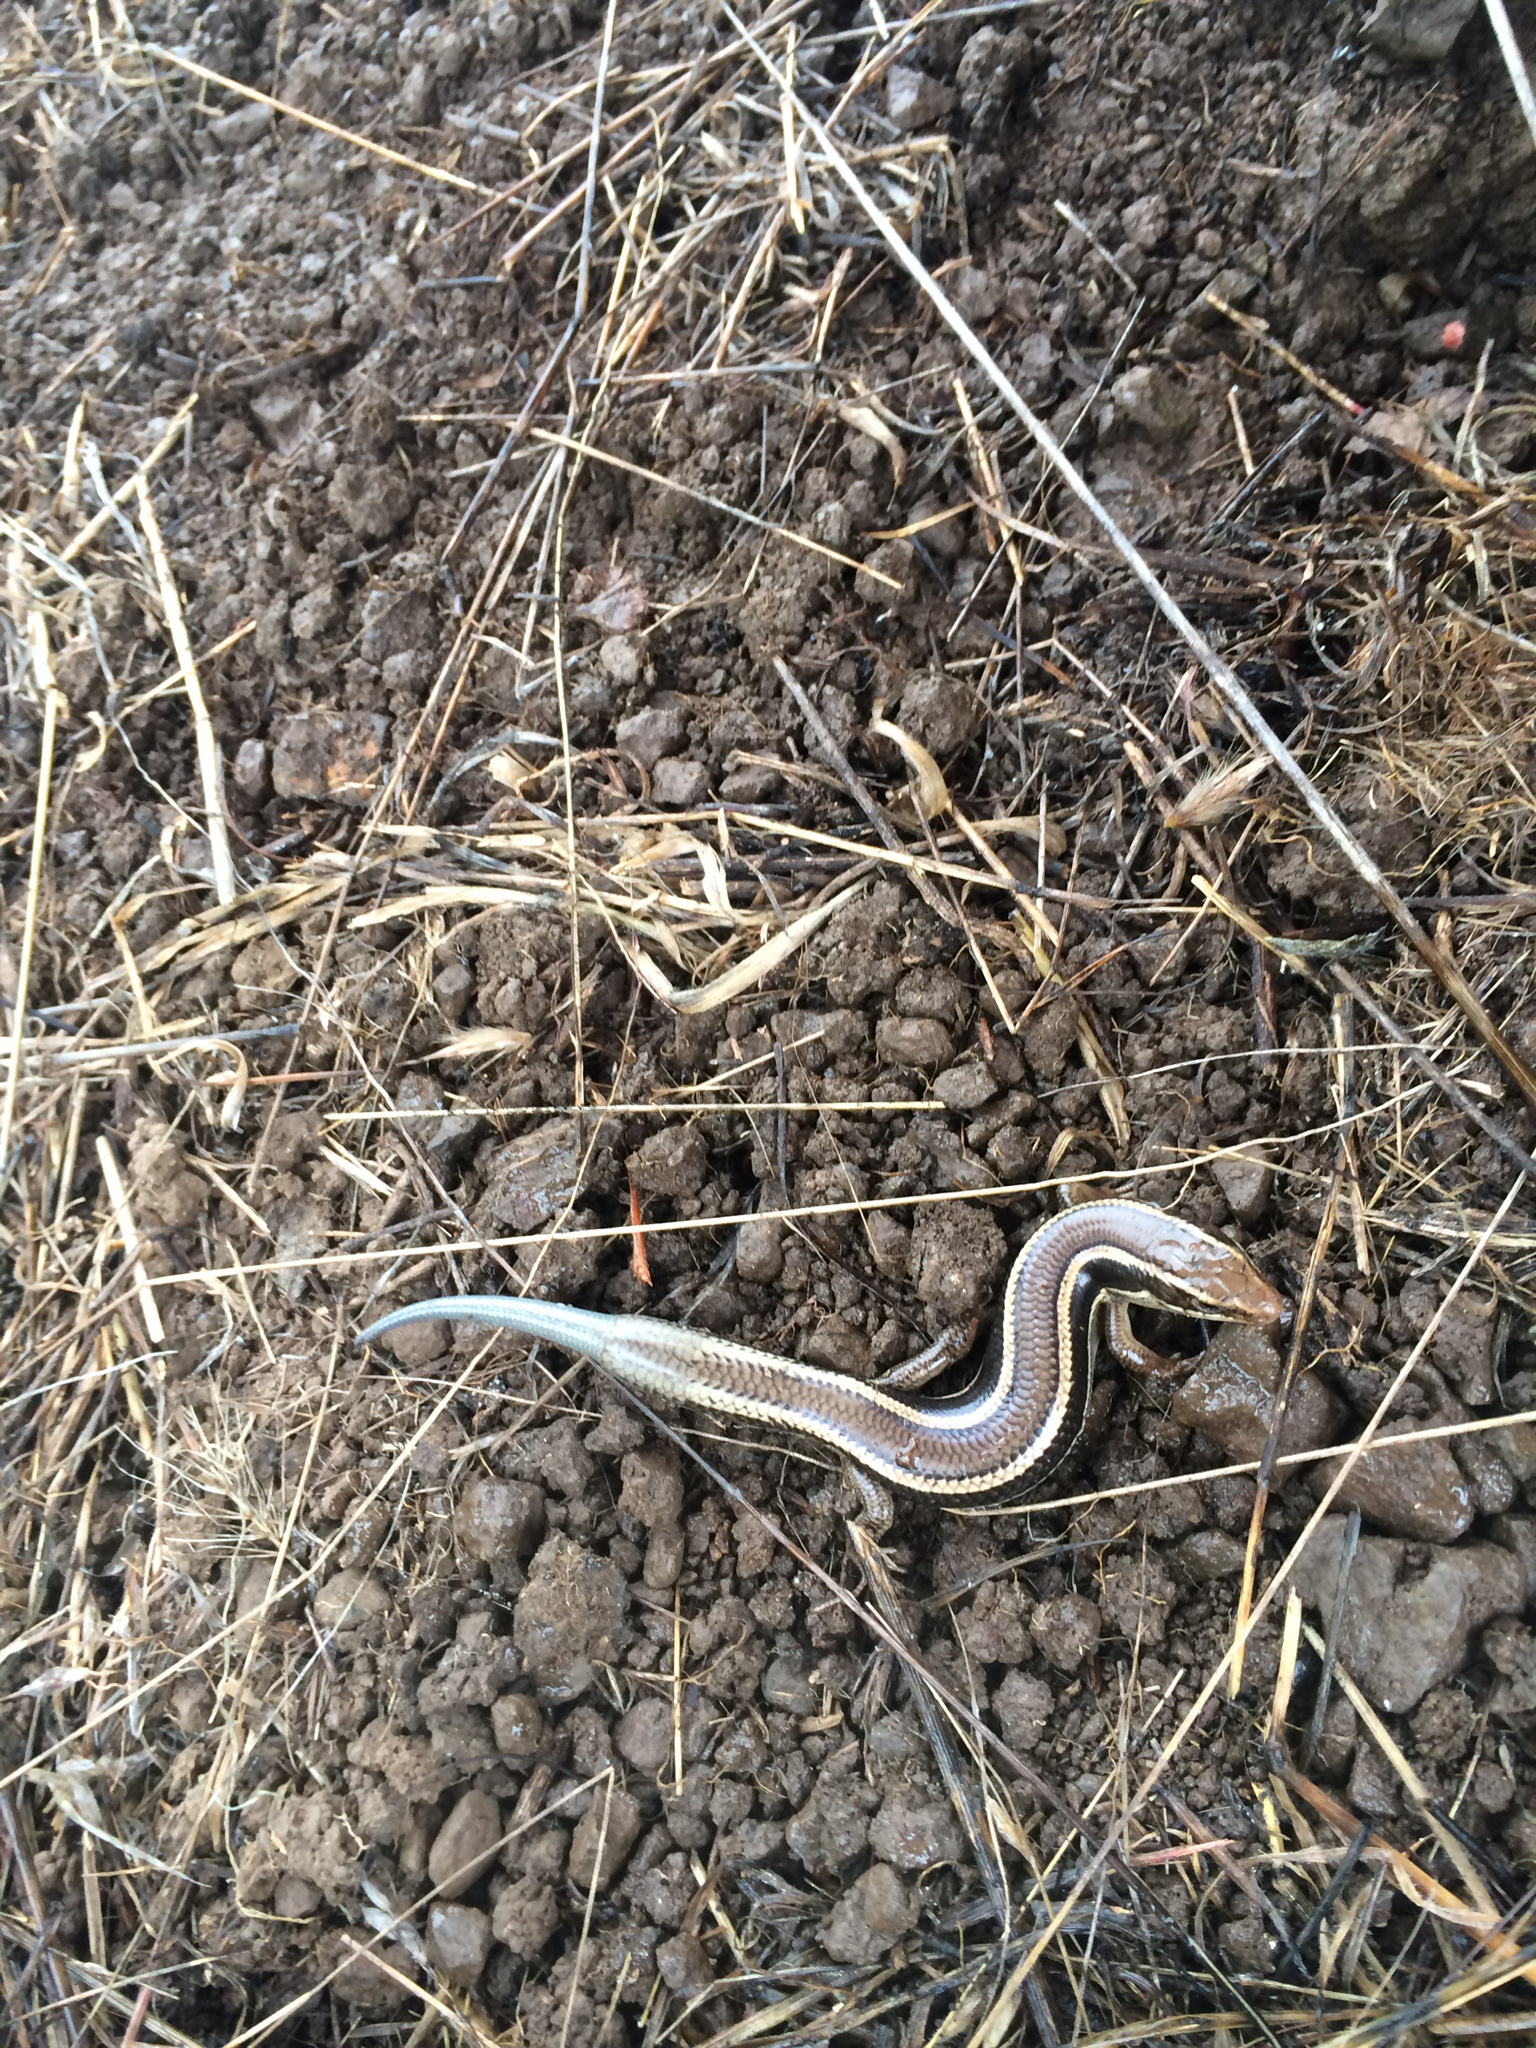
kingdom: Animalia
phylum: Chordata
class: Squamata
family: Scincidae
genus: Plestiodon
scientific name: Plestiodon skiltonianus
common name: Coronado island skink [interparietalis]
